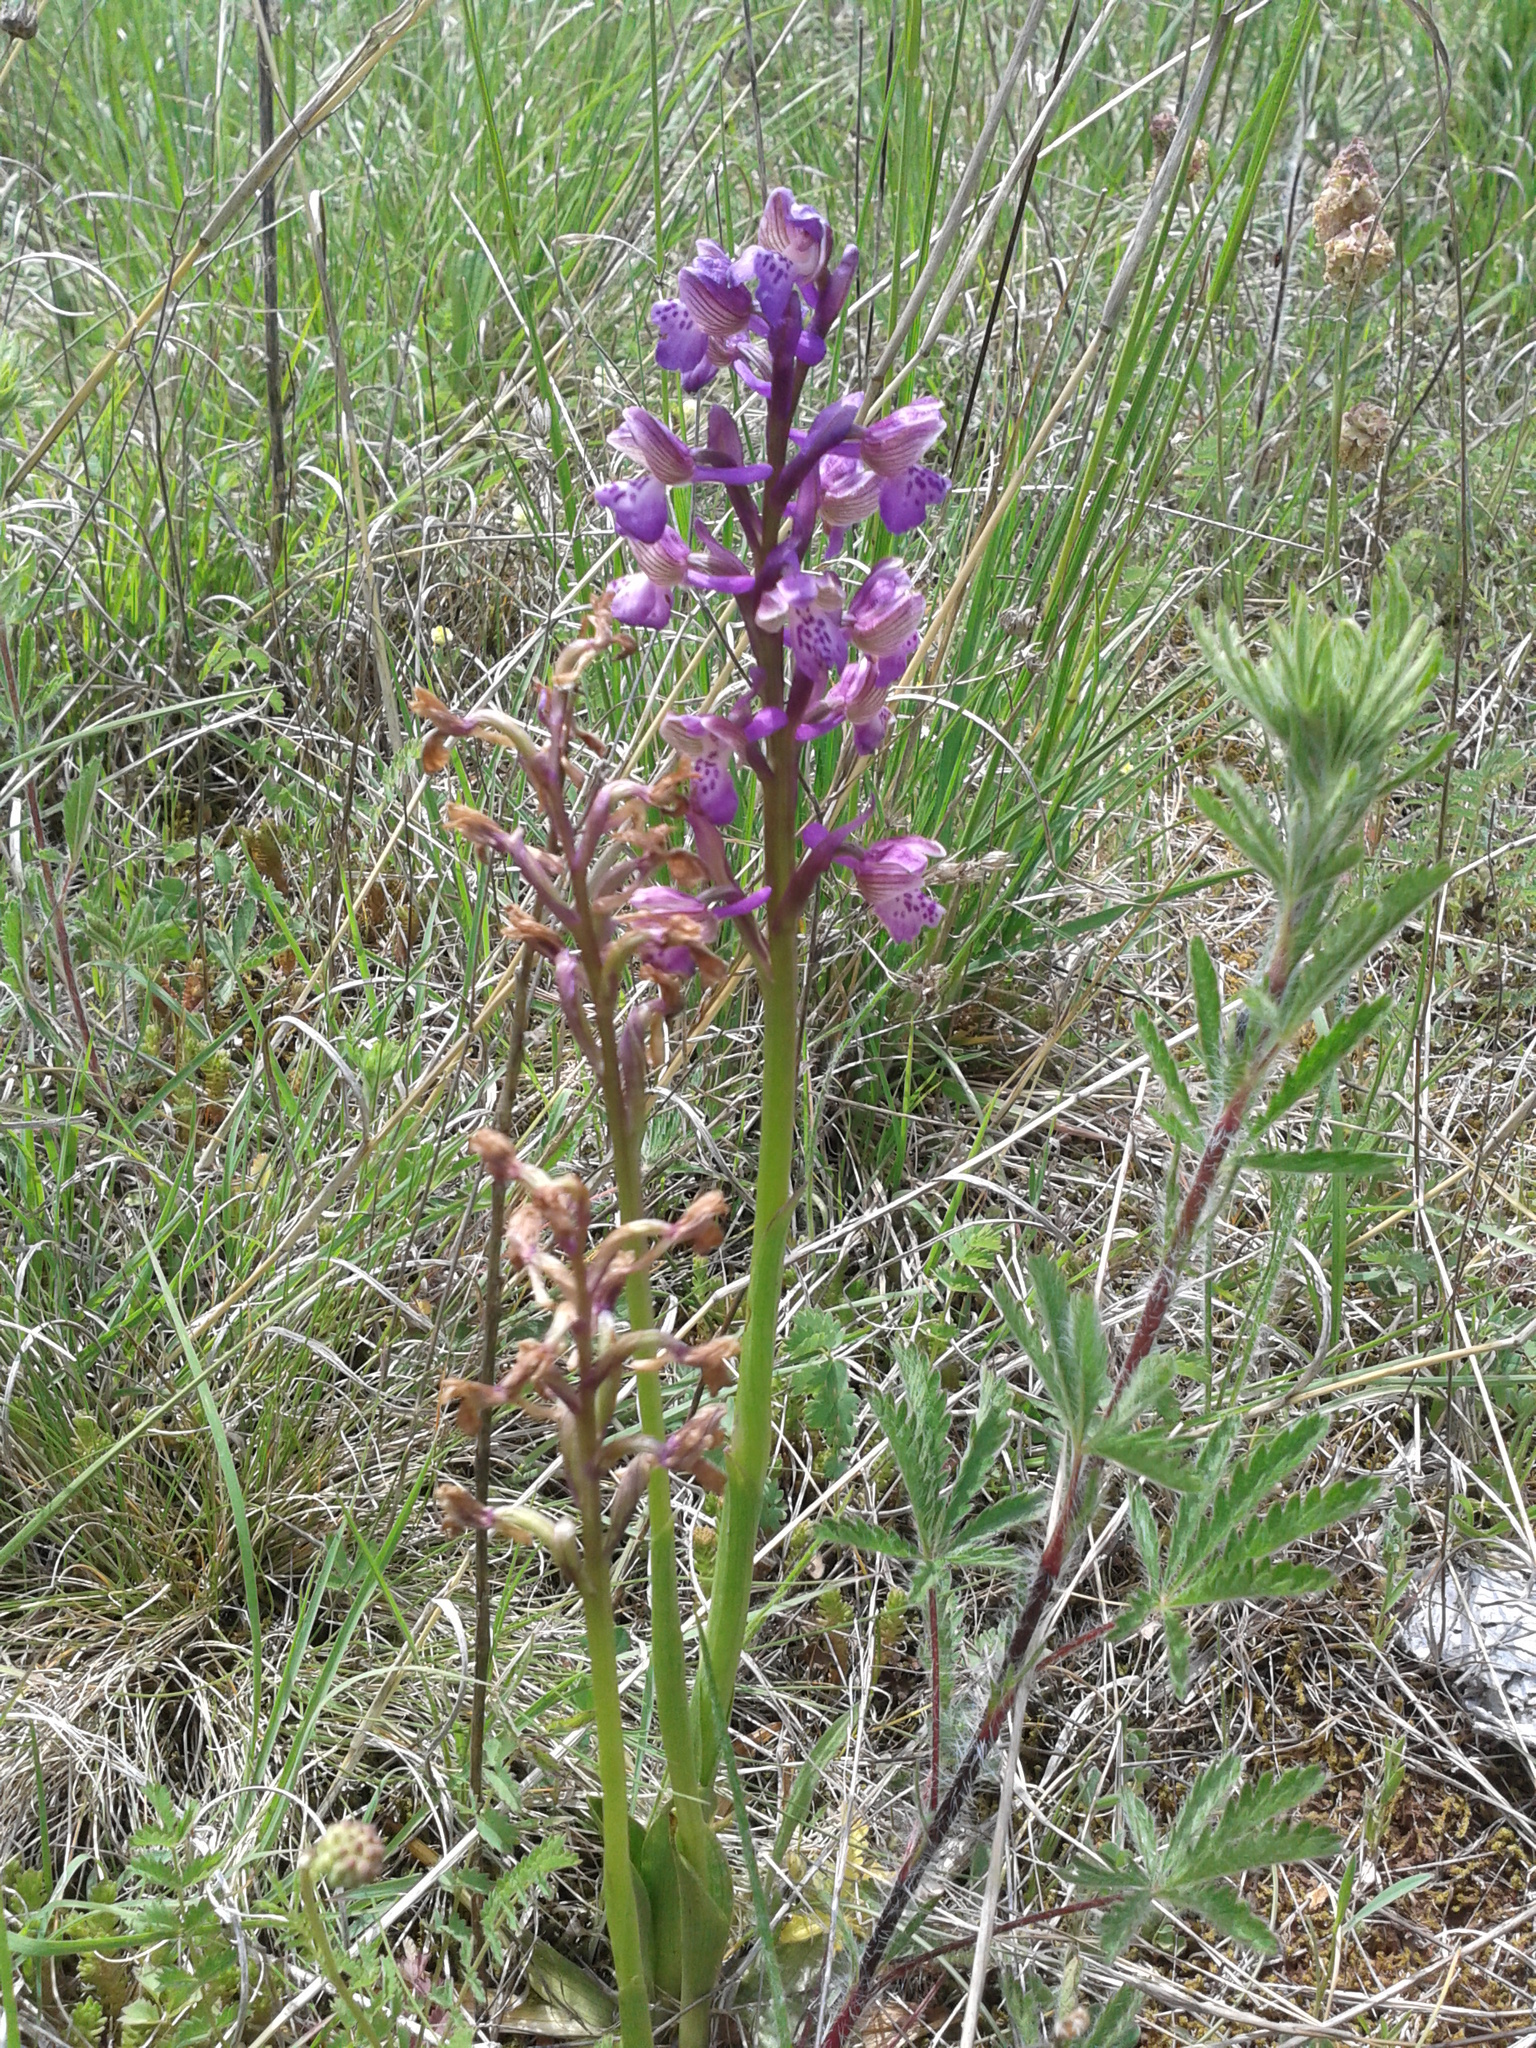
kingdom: Plantae
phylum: Tracheophyta
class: Liliopsida
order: Asparagales
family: Orchidaceae
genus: Anacamptis
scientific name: Anacamptis morio
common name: Green-winged orchid
